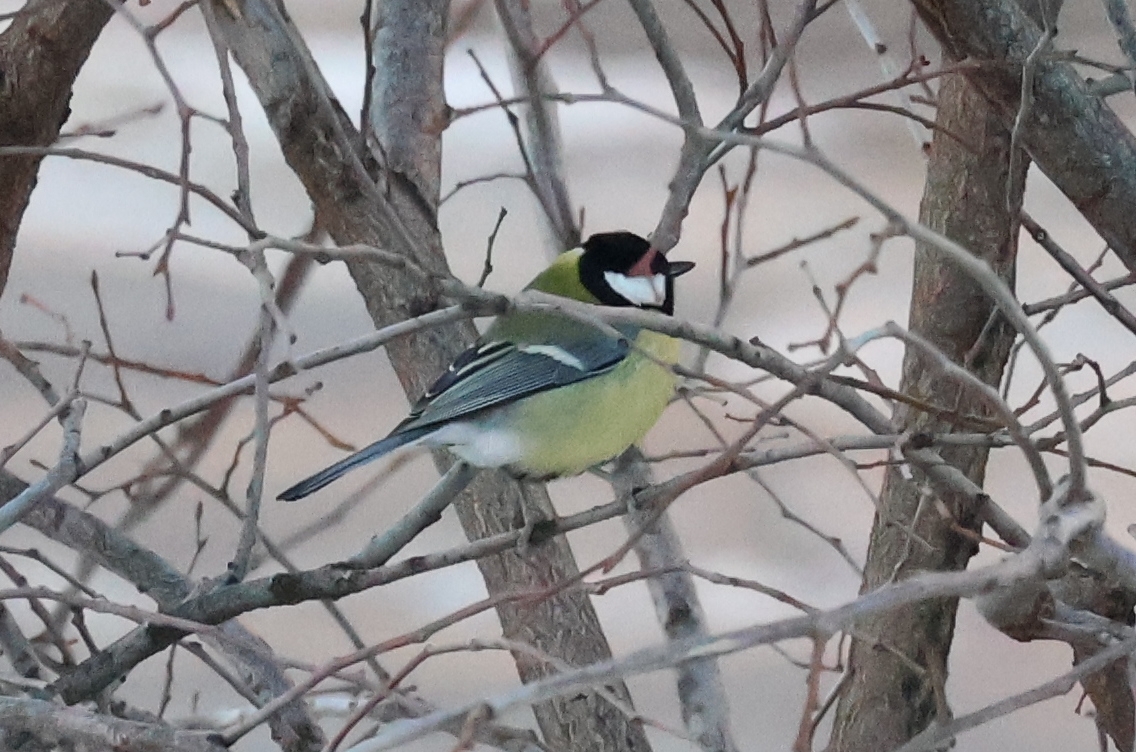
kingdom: Animalia
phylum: Chordata
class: Aves
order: Passeriformes
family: Paridae
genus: Parus
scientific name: Parus major
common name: Great tit
